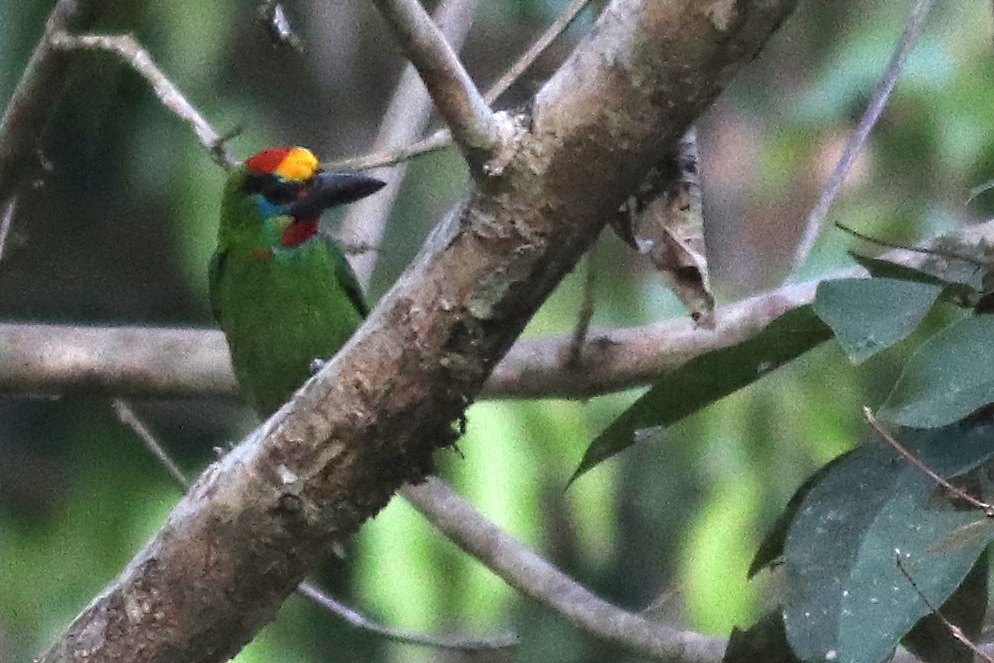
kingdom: Animalia
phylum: Chordata
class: Aves
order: Piciformes
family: Megalaimidae
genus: Psilopogon
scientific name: Psilopogon mystacophanos
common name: Red-throated barbet
